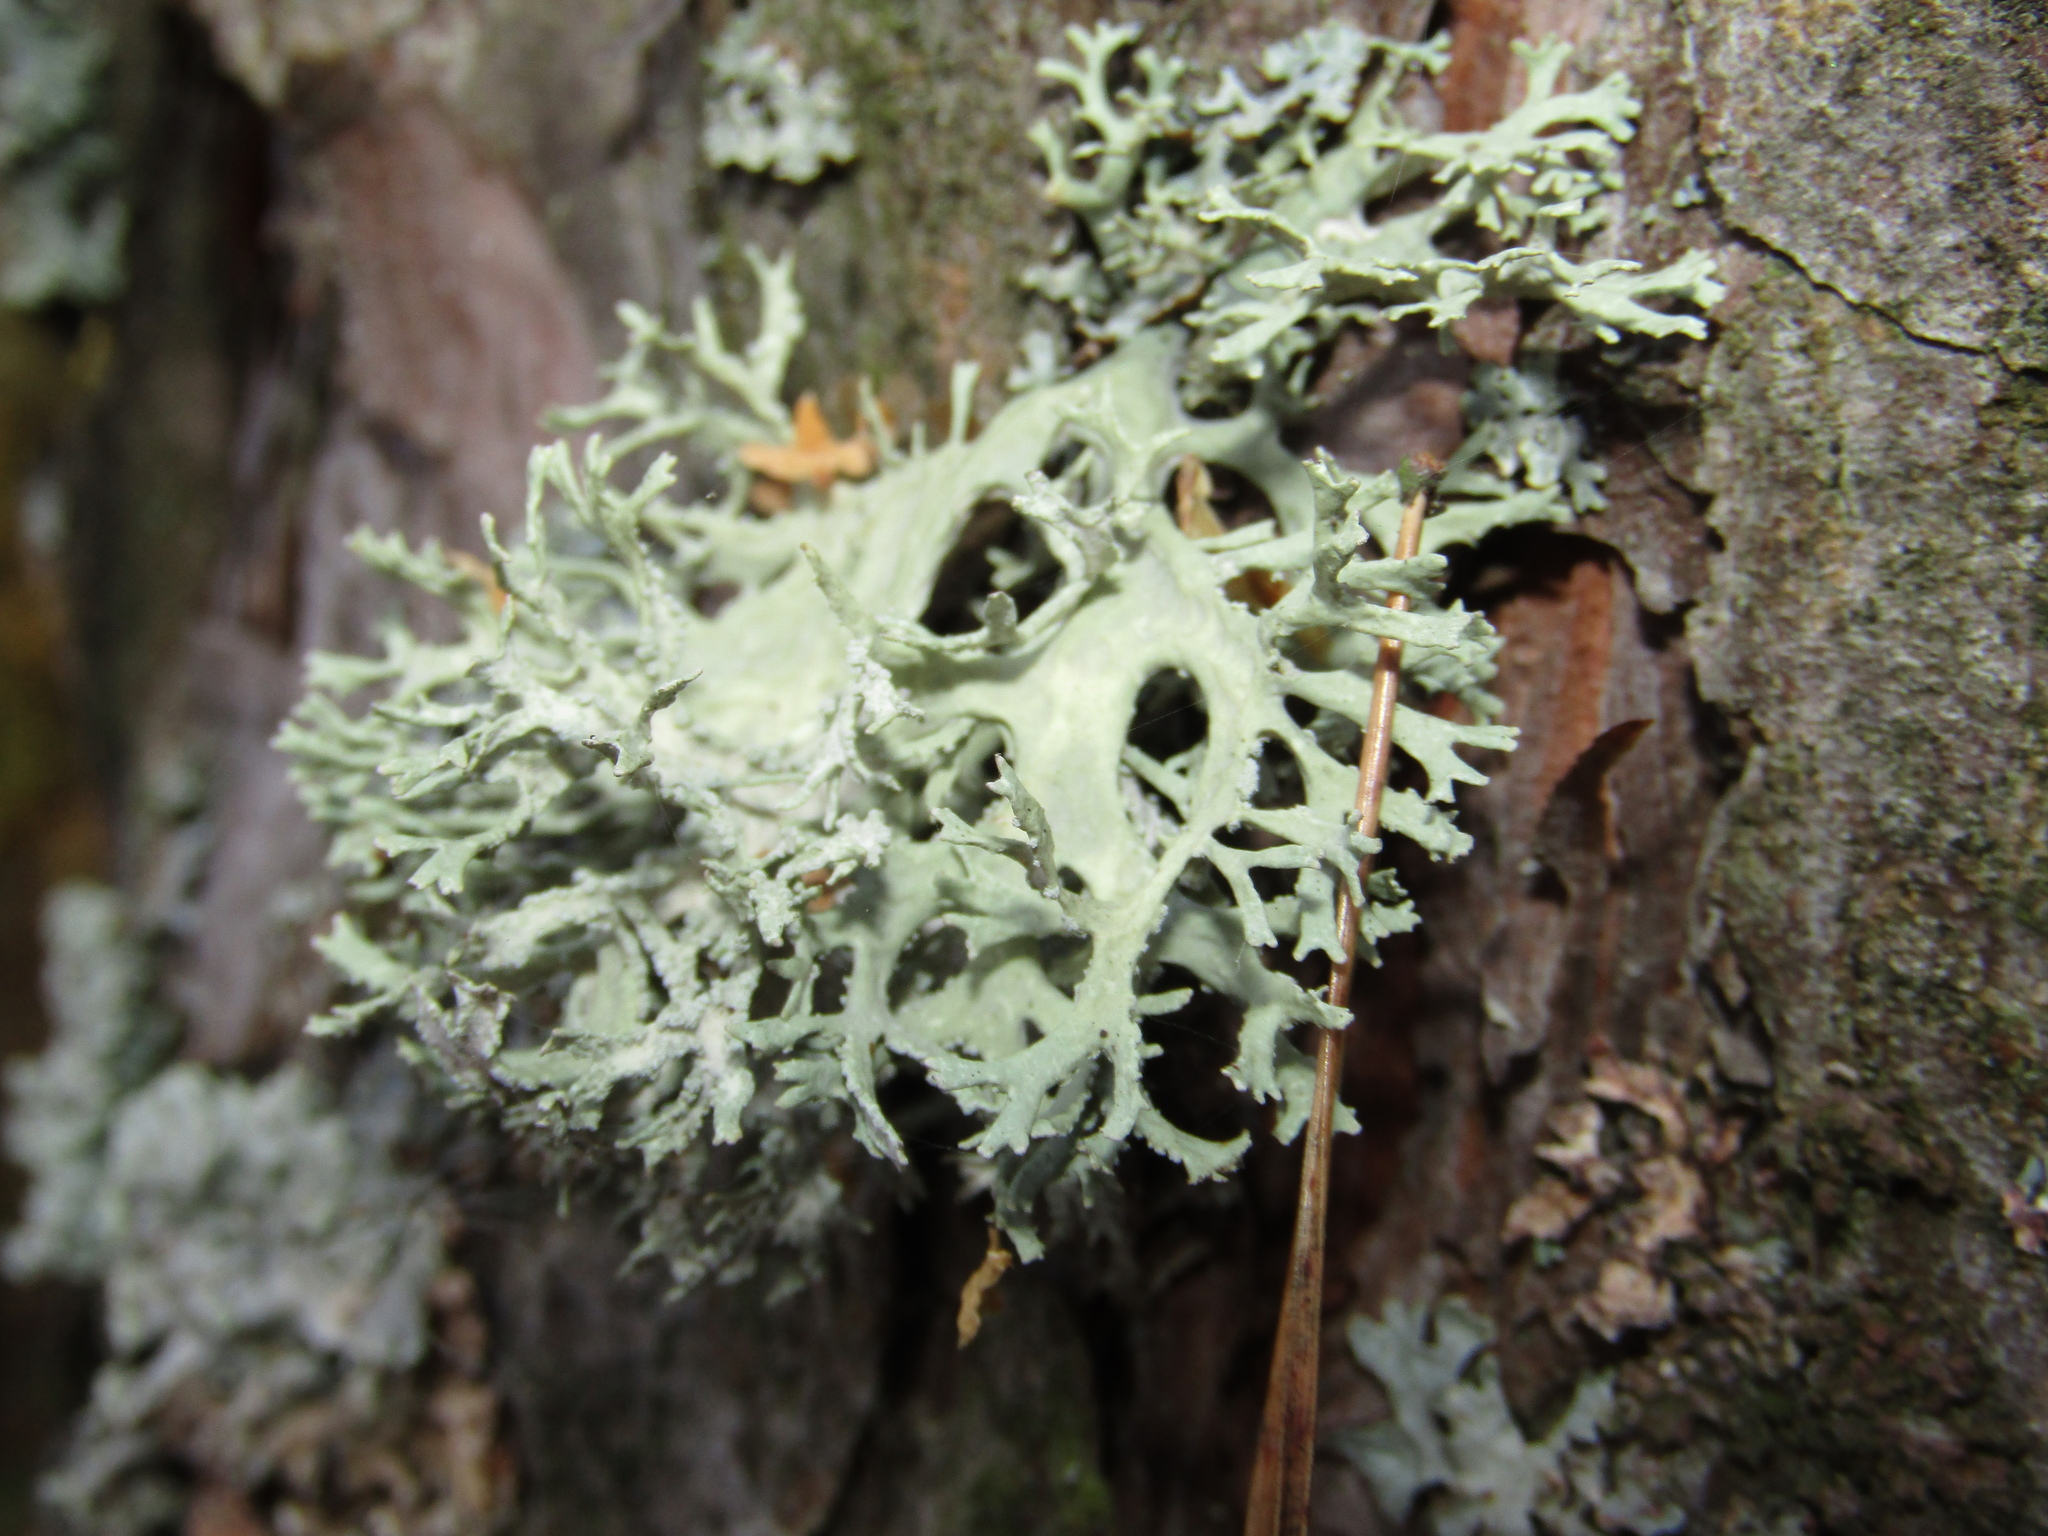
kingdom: Fungi
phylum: Ascomycota
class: Lecanoromycetes
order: Lecanorales
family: Parmeliaceae
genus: Evernia
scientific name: Evernia prunastri
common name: Oak moss
